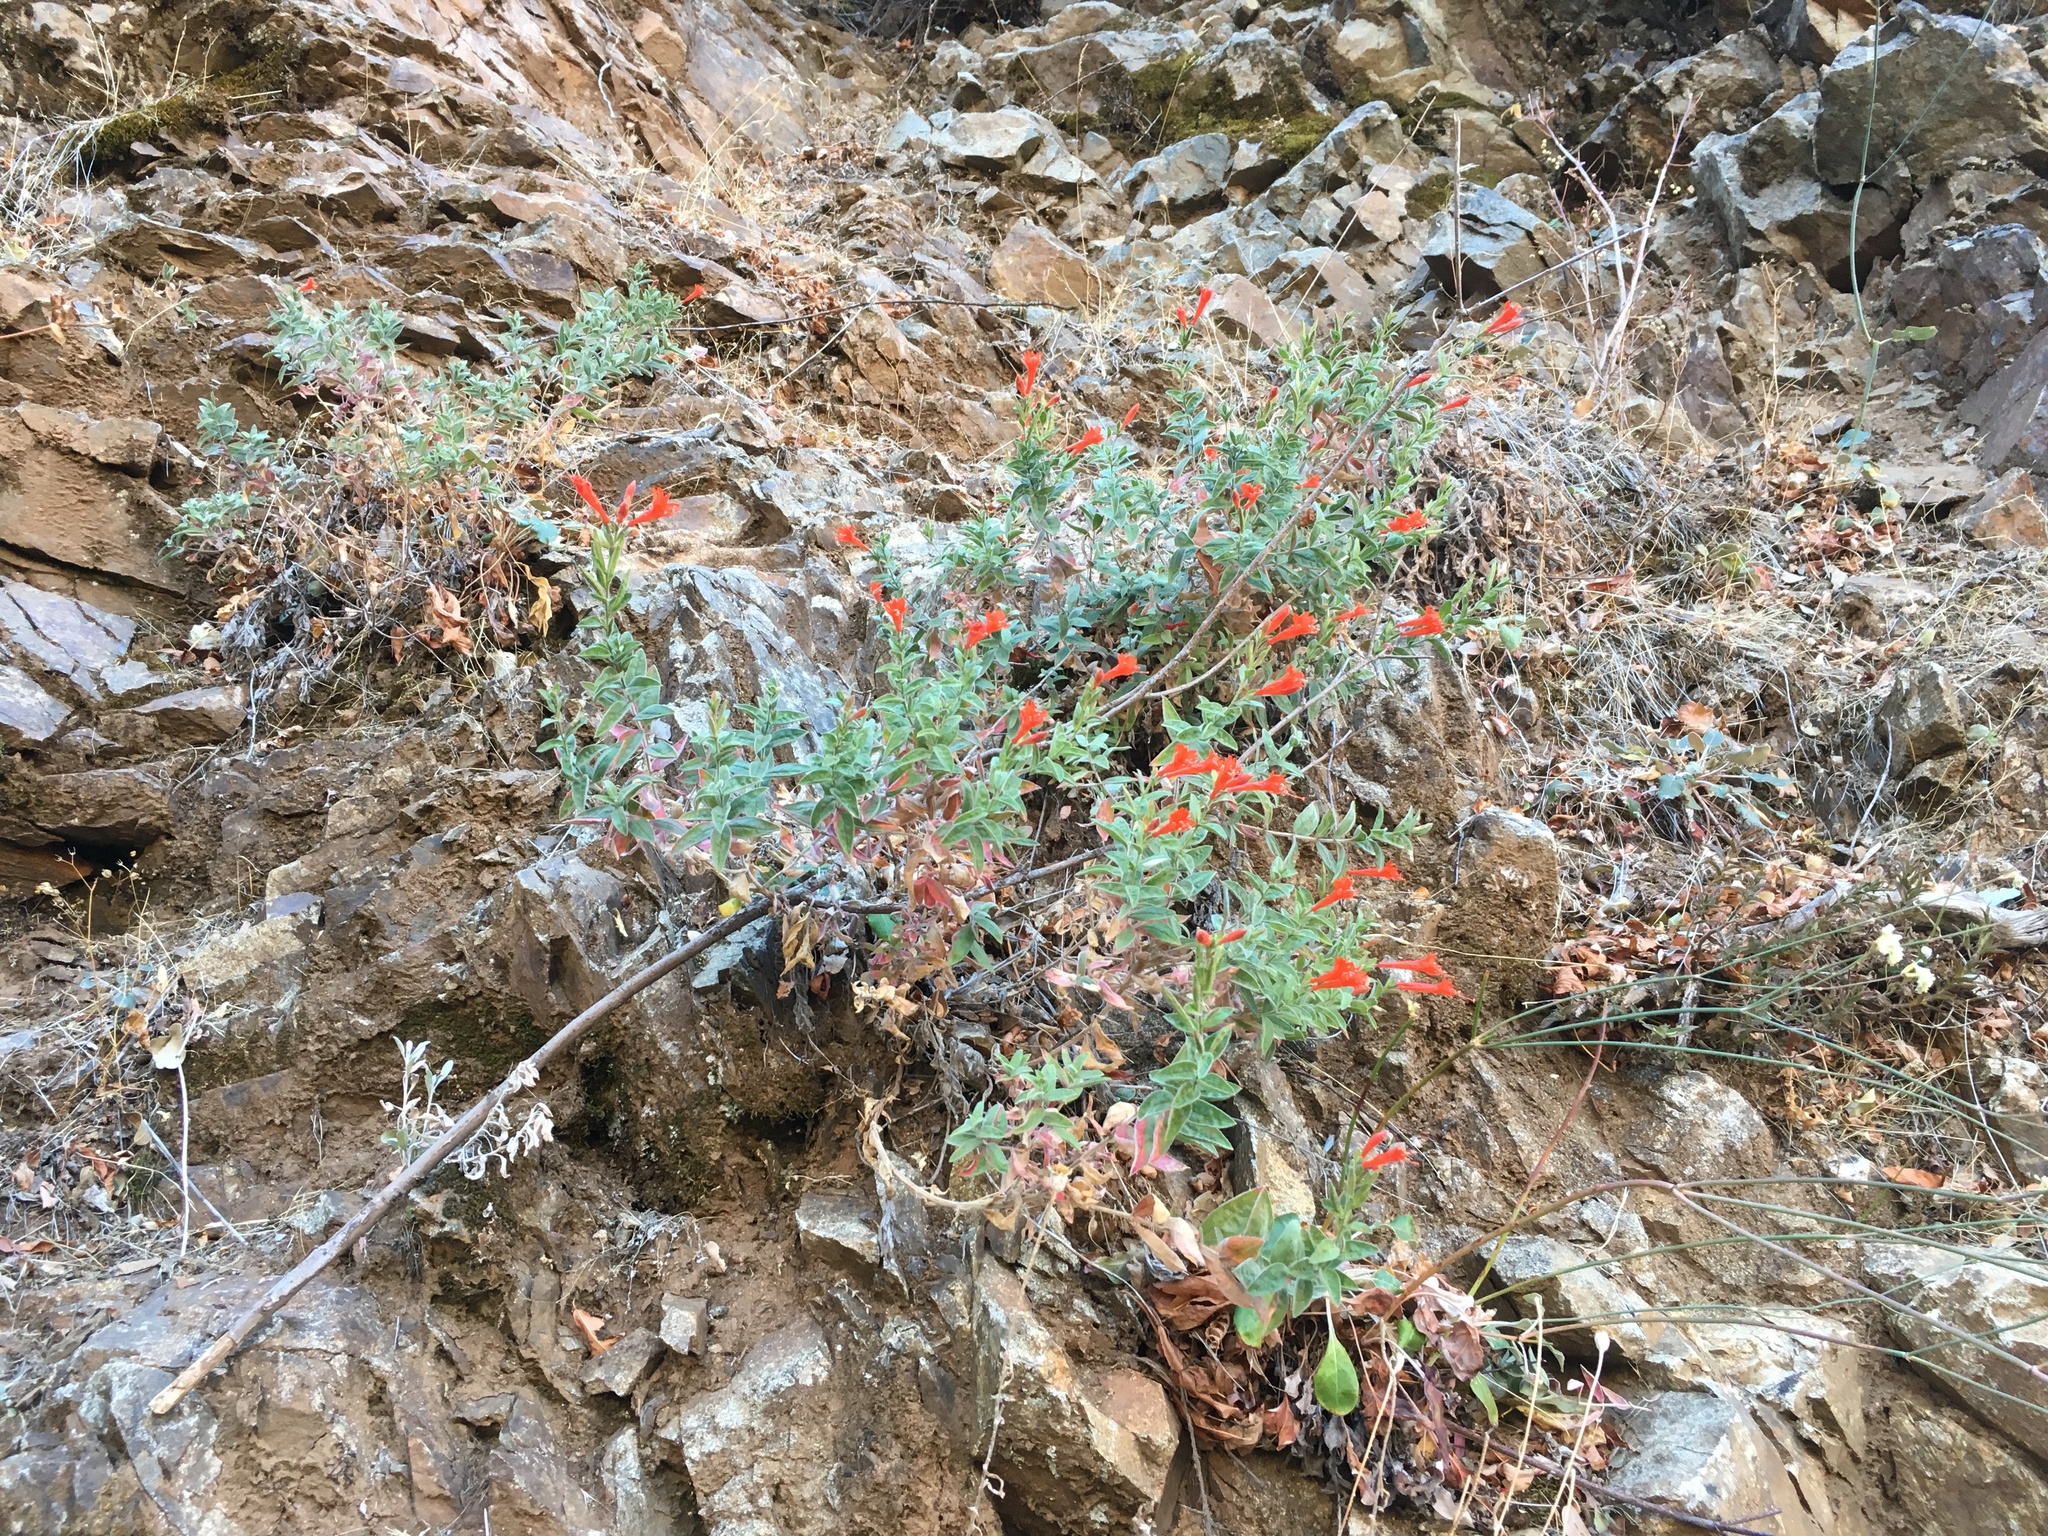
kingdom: Plantae
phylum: Tracheophyta
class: Magnoliopsida
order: Myrtales
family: Onagraceae
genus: Epilobium
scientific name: Epilobium canum
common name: California-fuchsia
